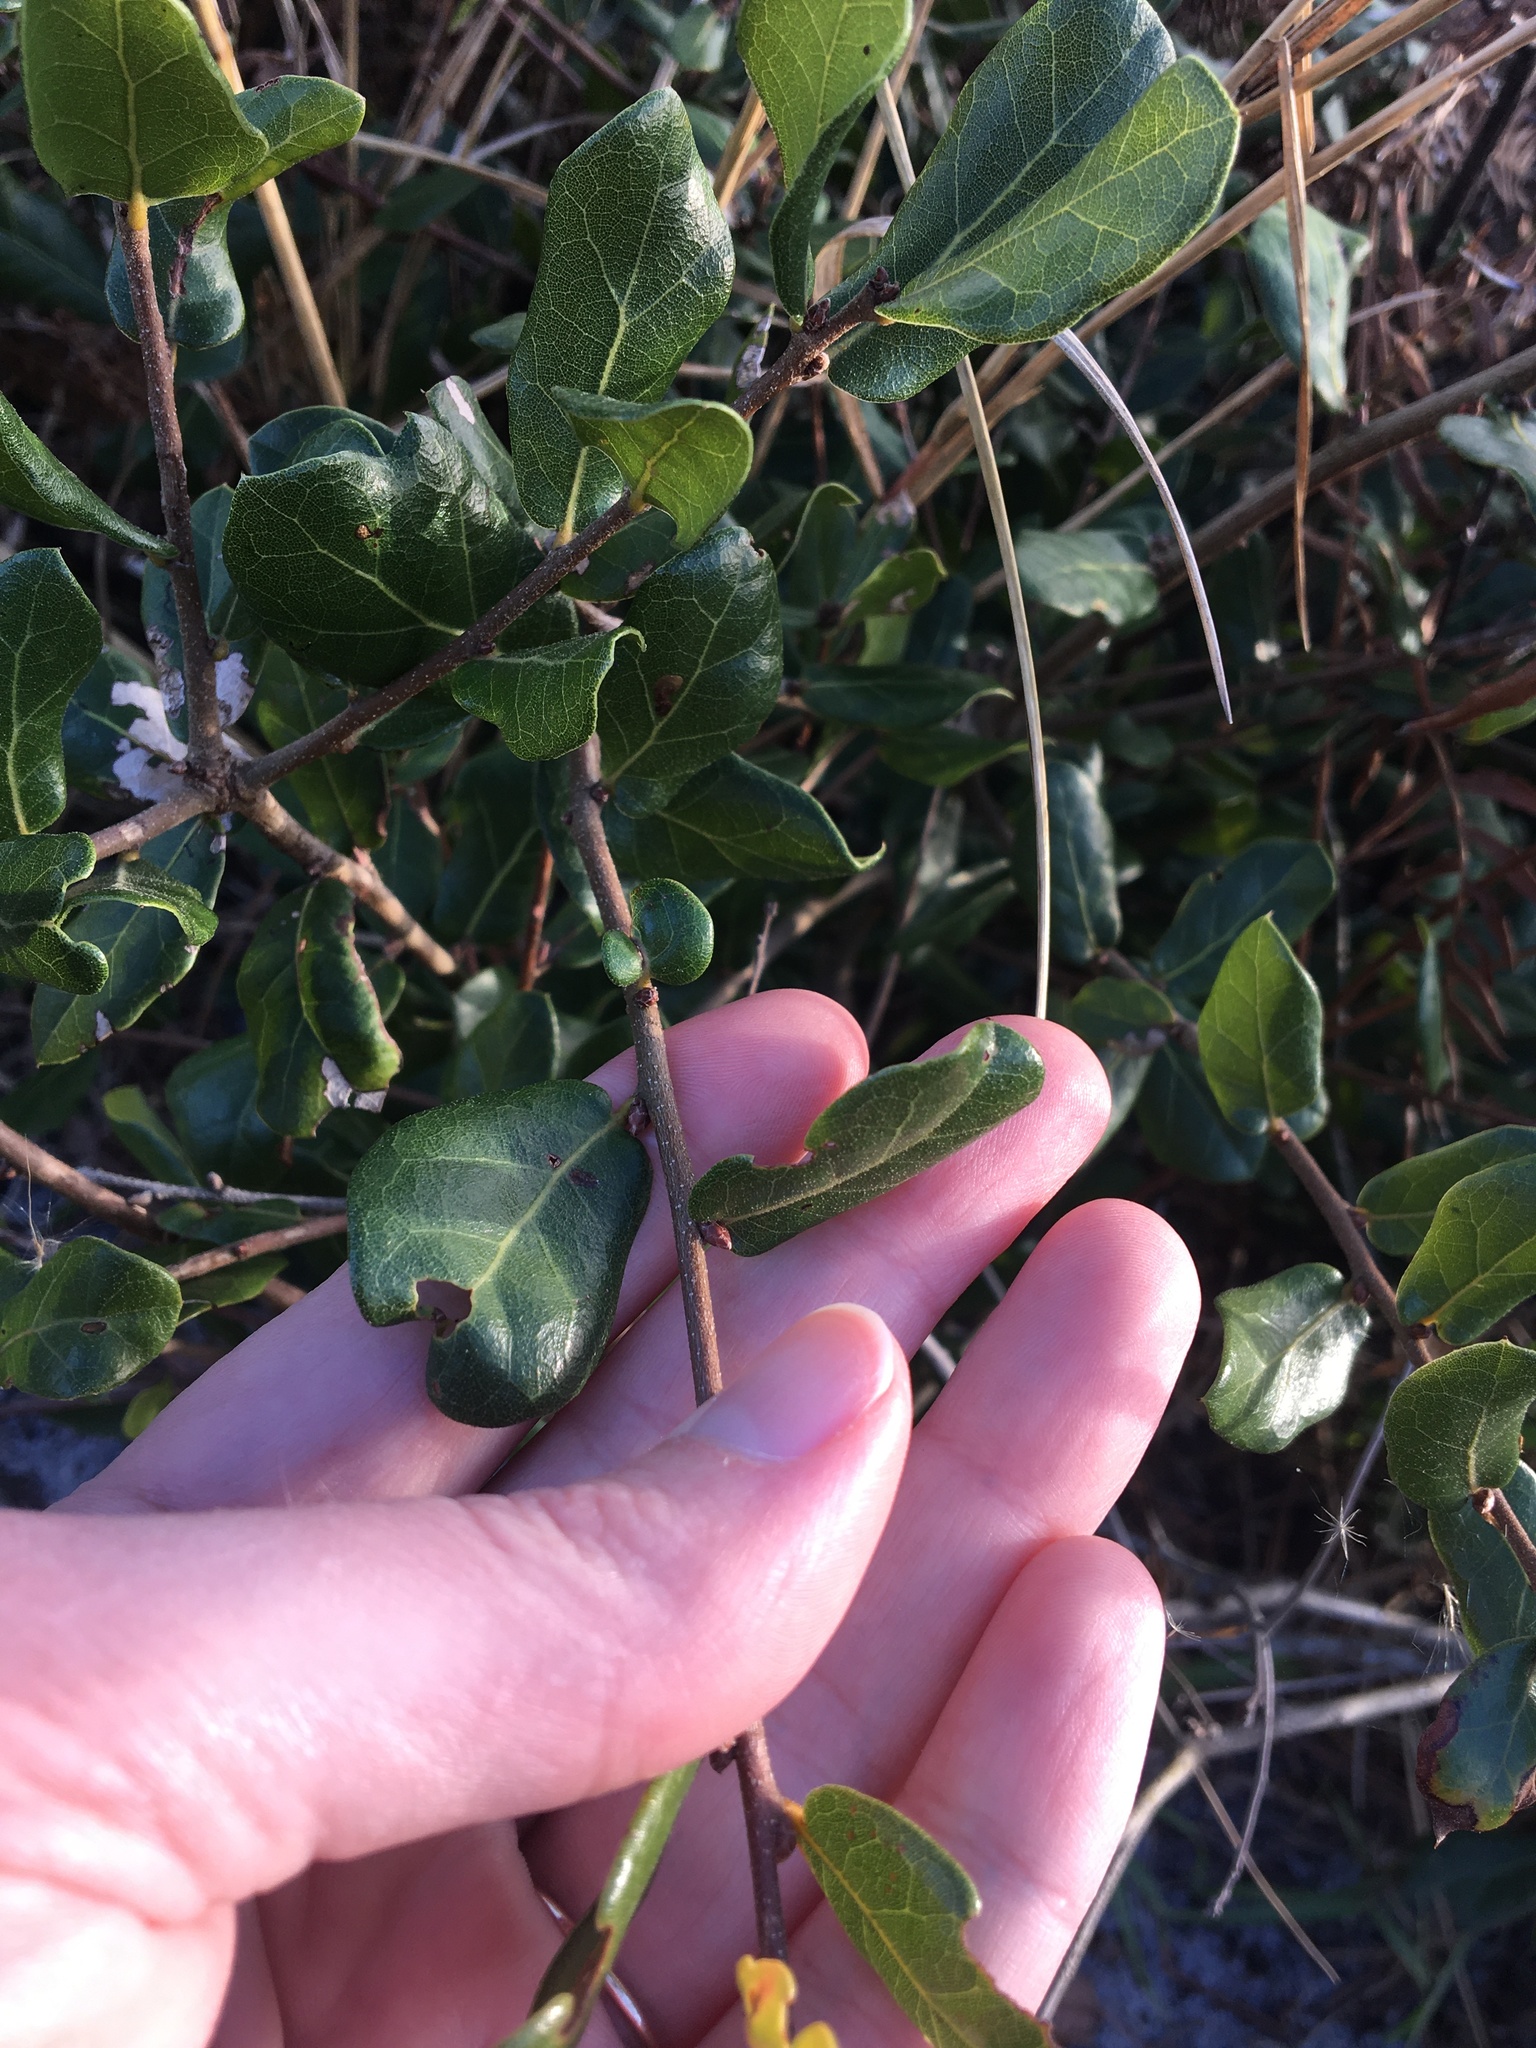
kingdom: Plantae
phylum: Tracheophyta
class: Magnoliopsida
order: Fagales
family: Fagaceae
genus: Quercus
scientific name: Quercus myrtifolia
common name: Myrtle oak
